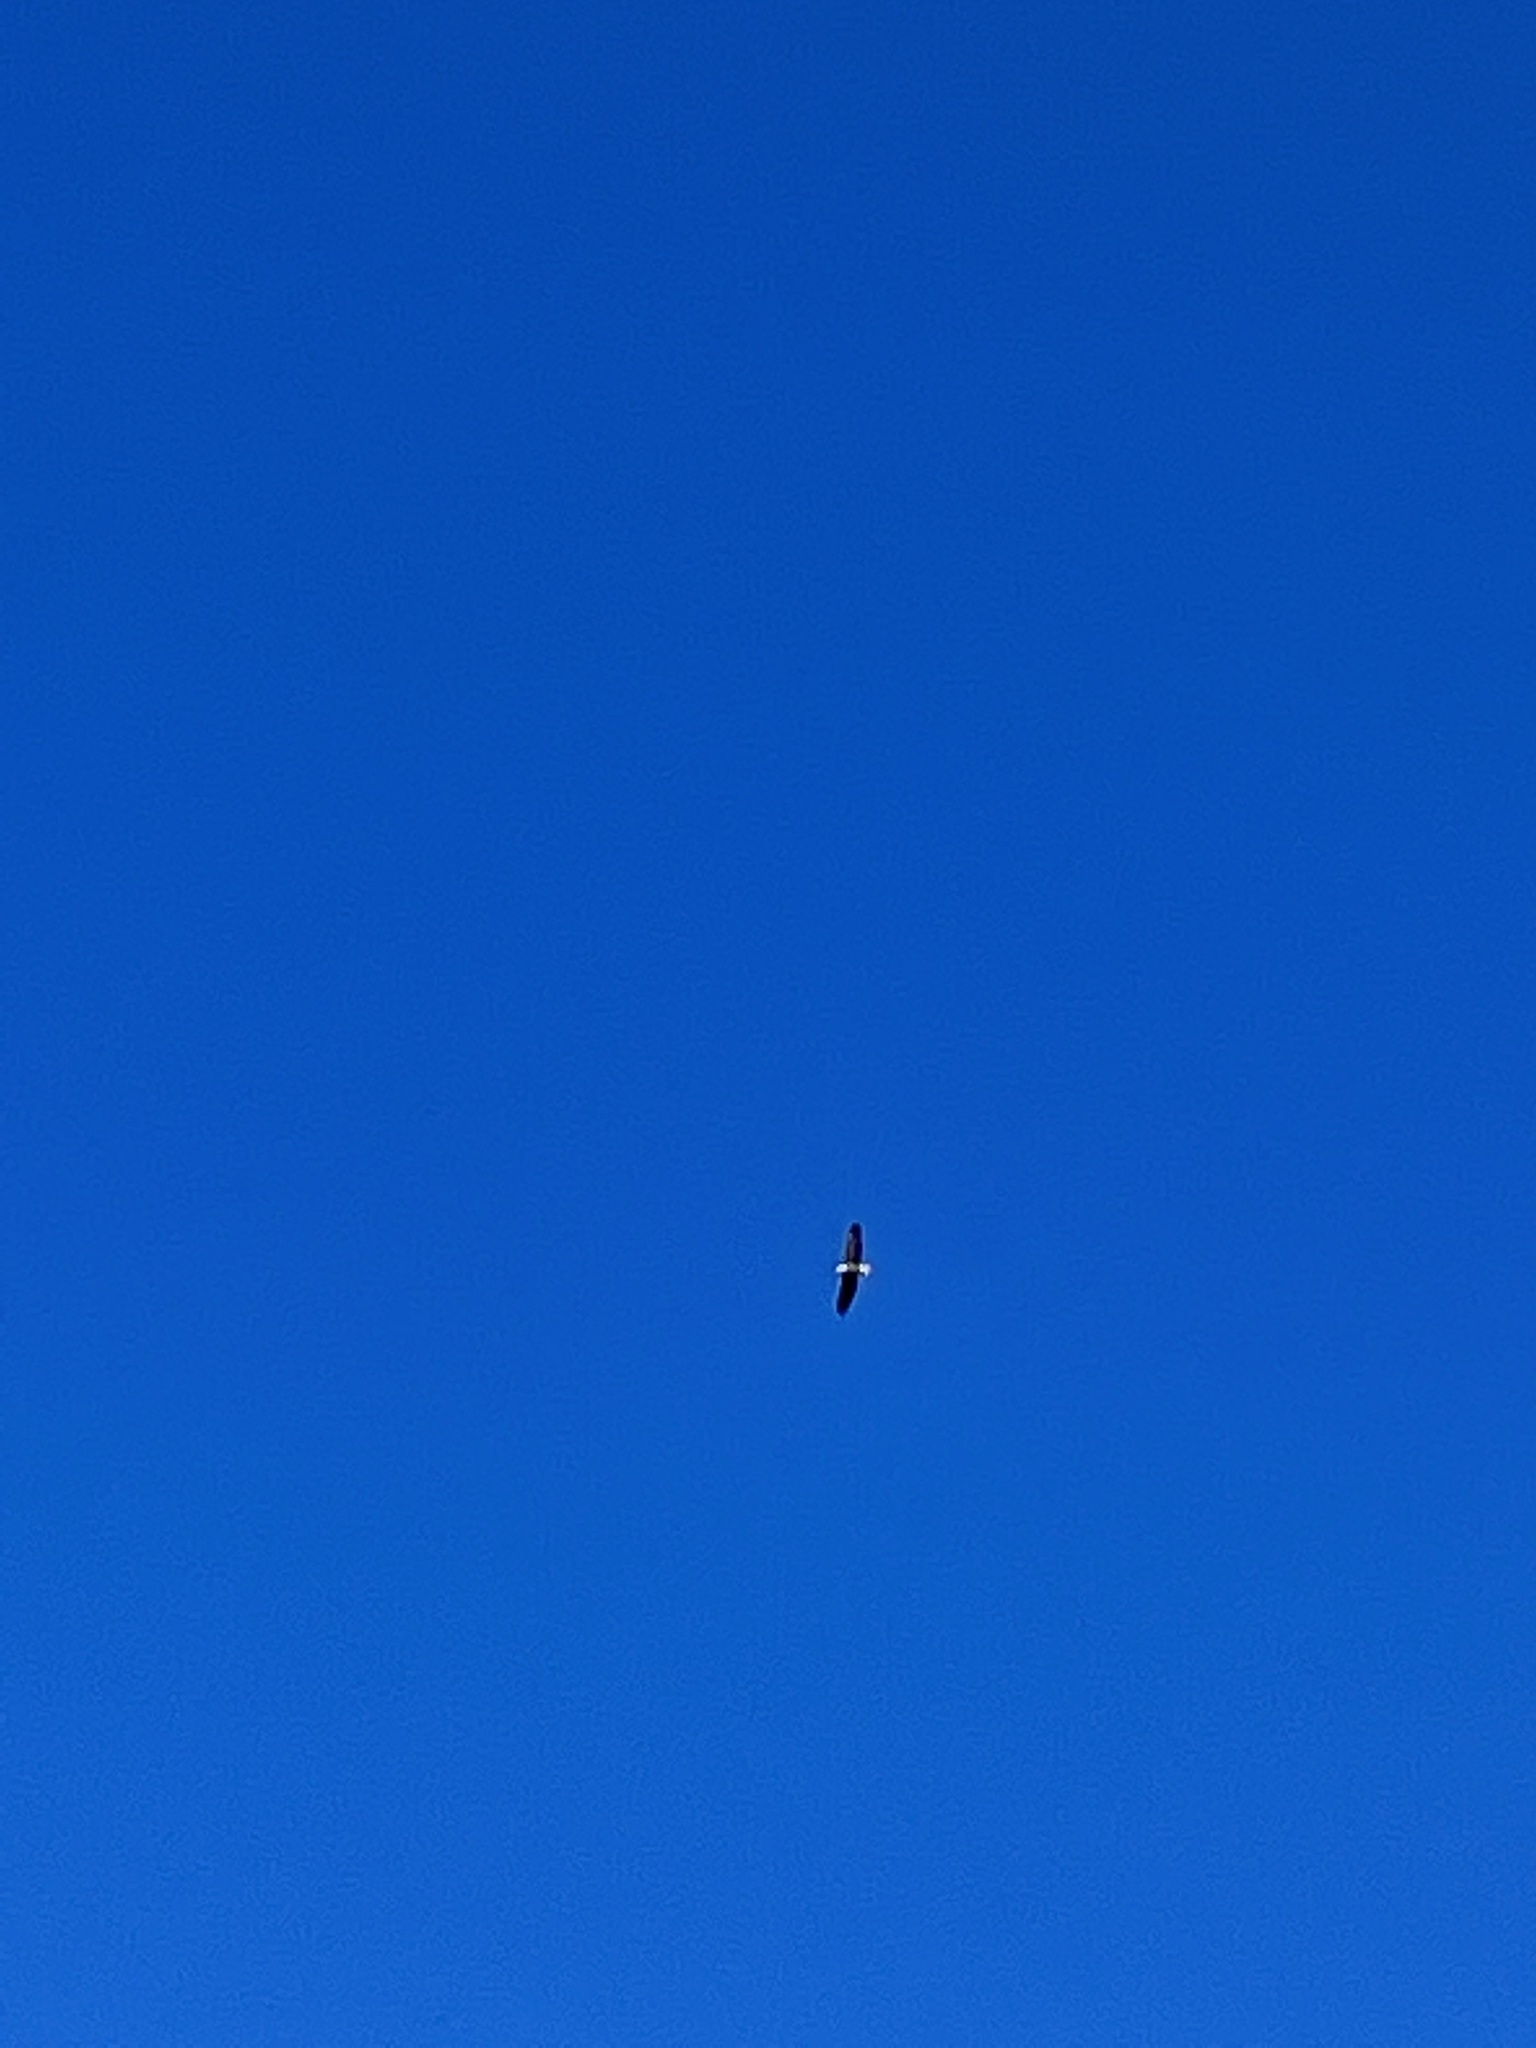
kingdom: Animalia
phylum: Chordata
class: Aves
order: Accipitriformes
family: Accipitridae
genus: Haliaeetus
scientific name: Haliaeetus leucocephalus
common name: Bald eagle
